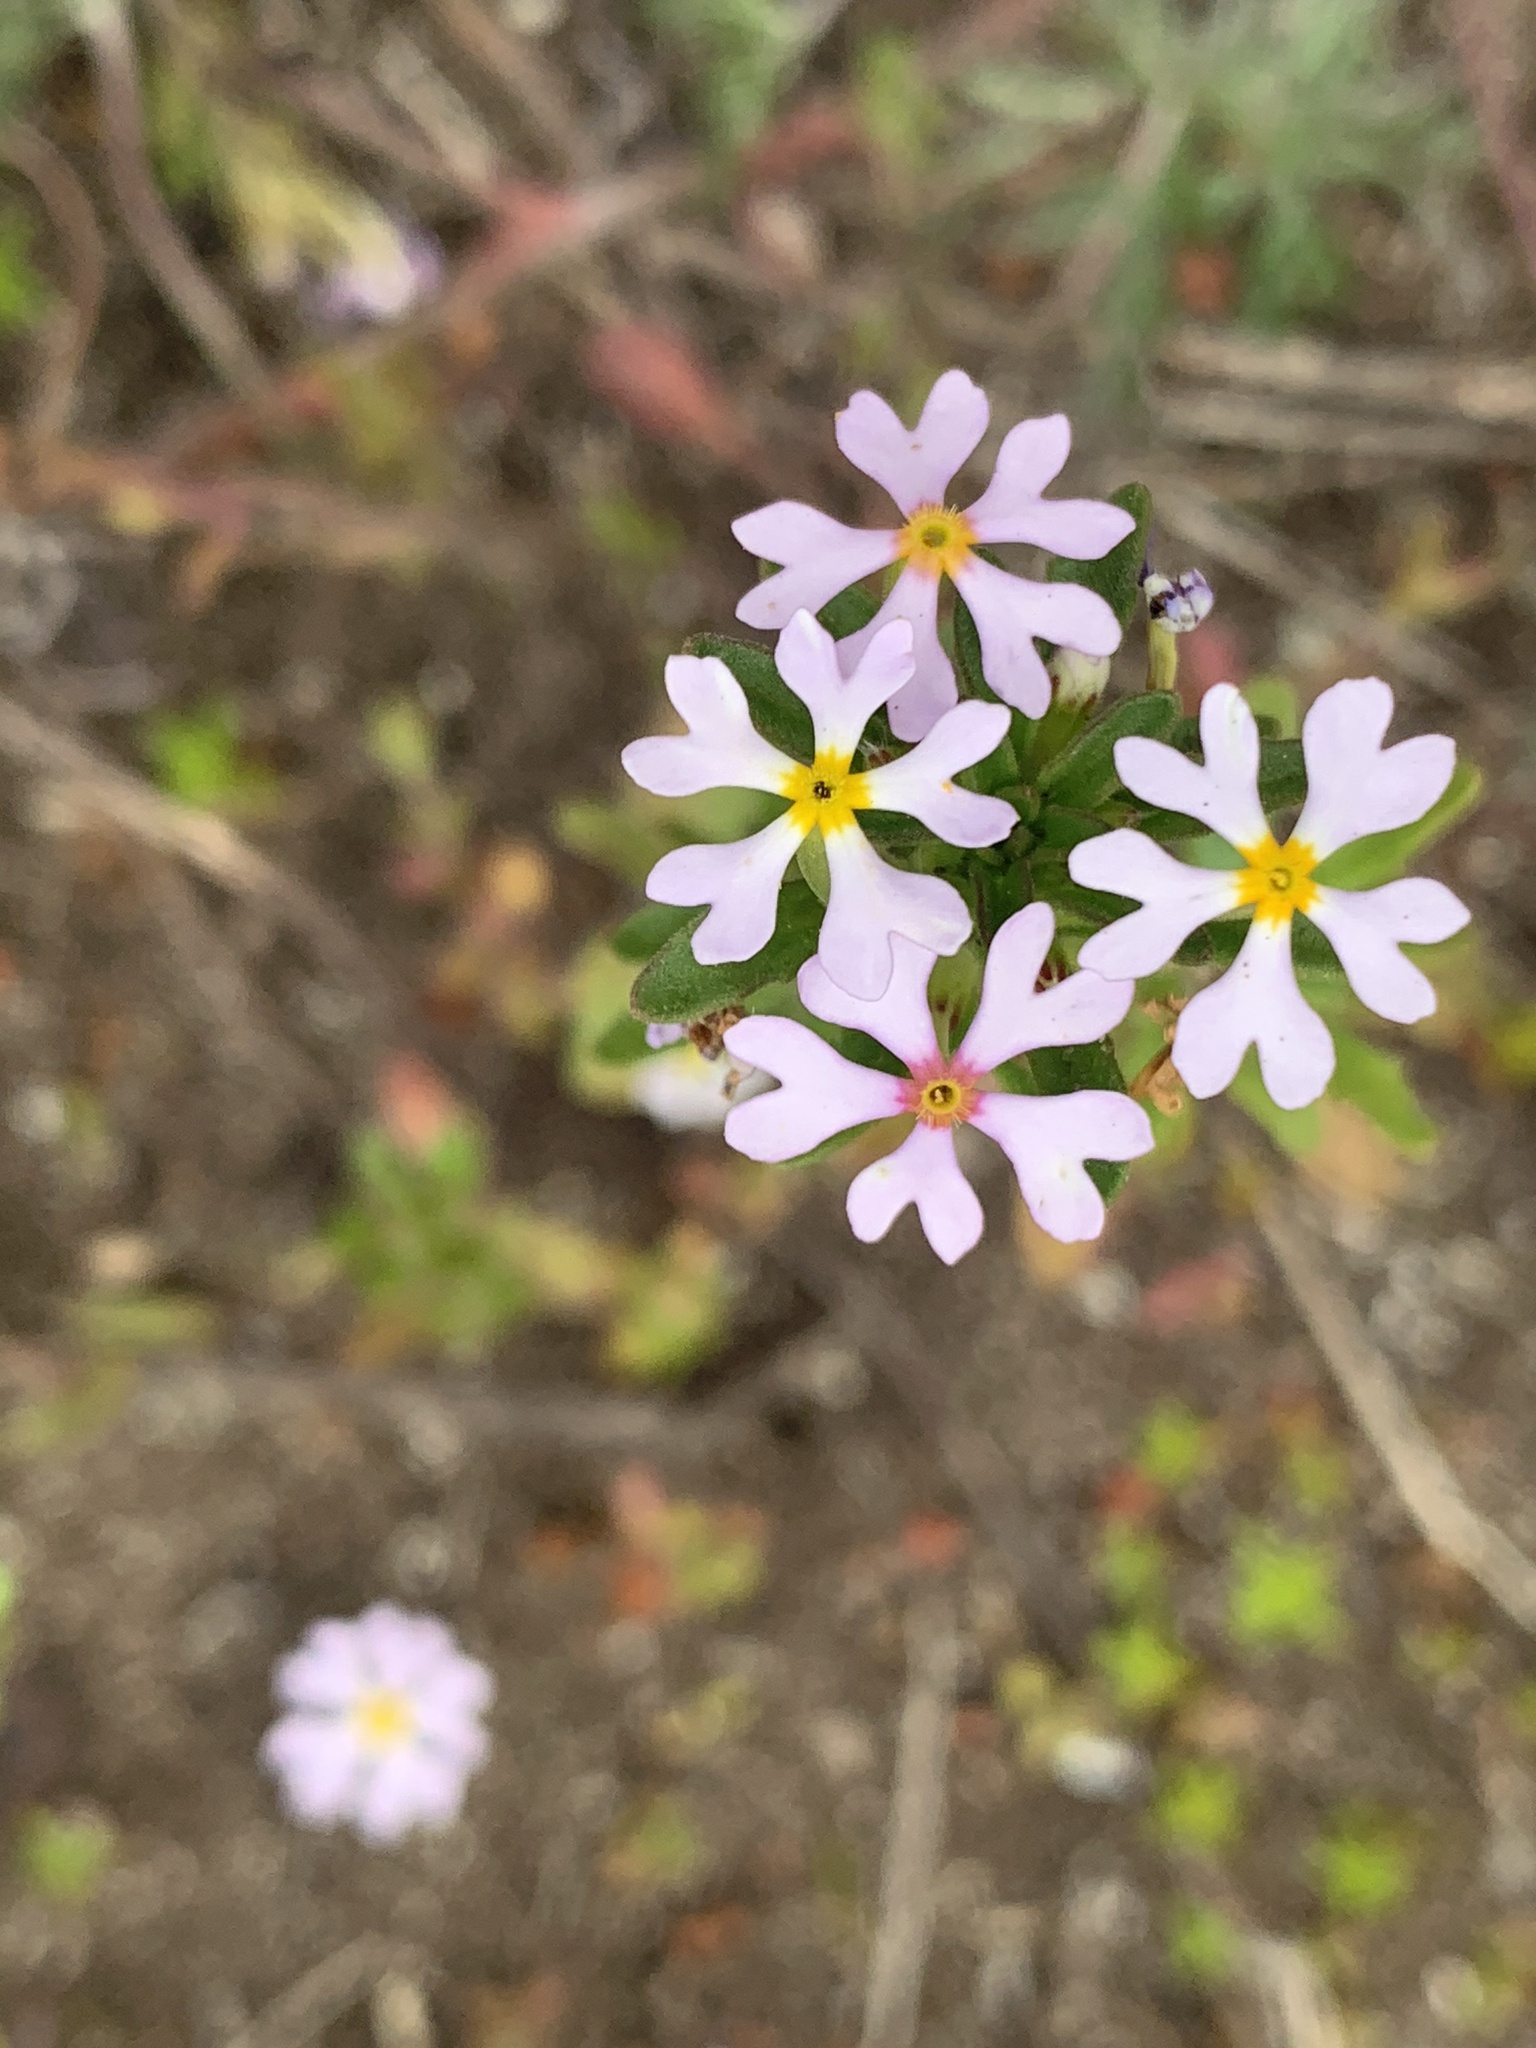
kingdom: Plantae
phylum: Tracheophyta
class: Magnoliopsida
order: Lamiales
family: Scrophulariaceae
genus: Zaluzianskya
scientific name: Zaluzianskya villosa
